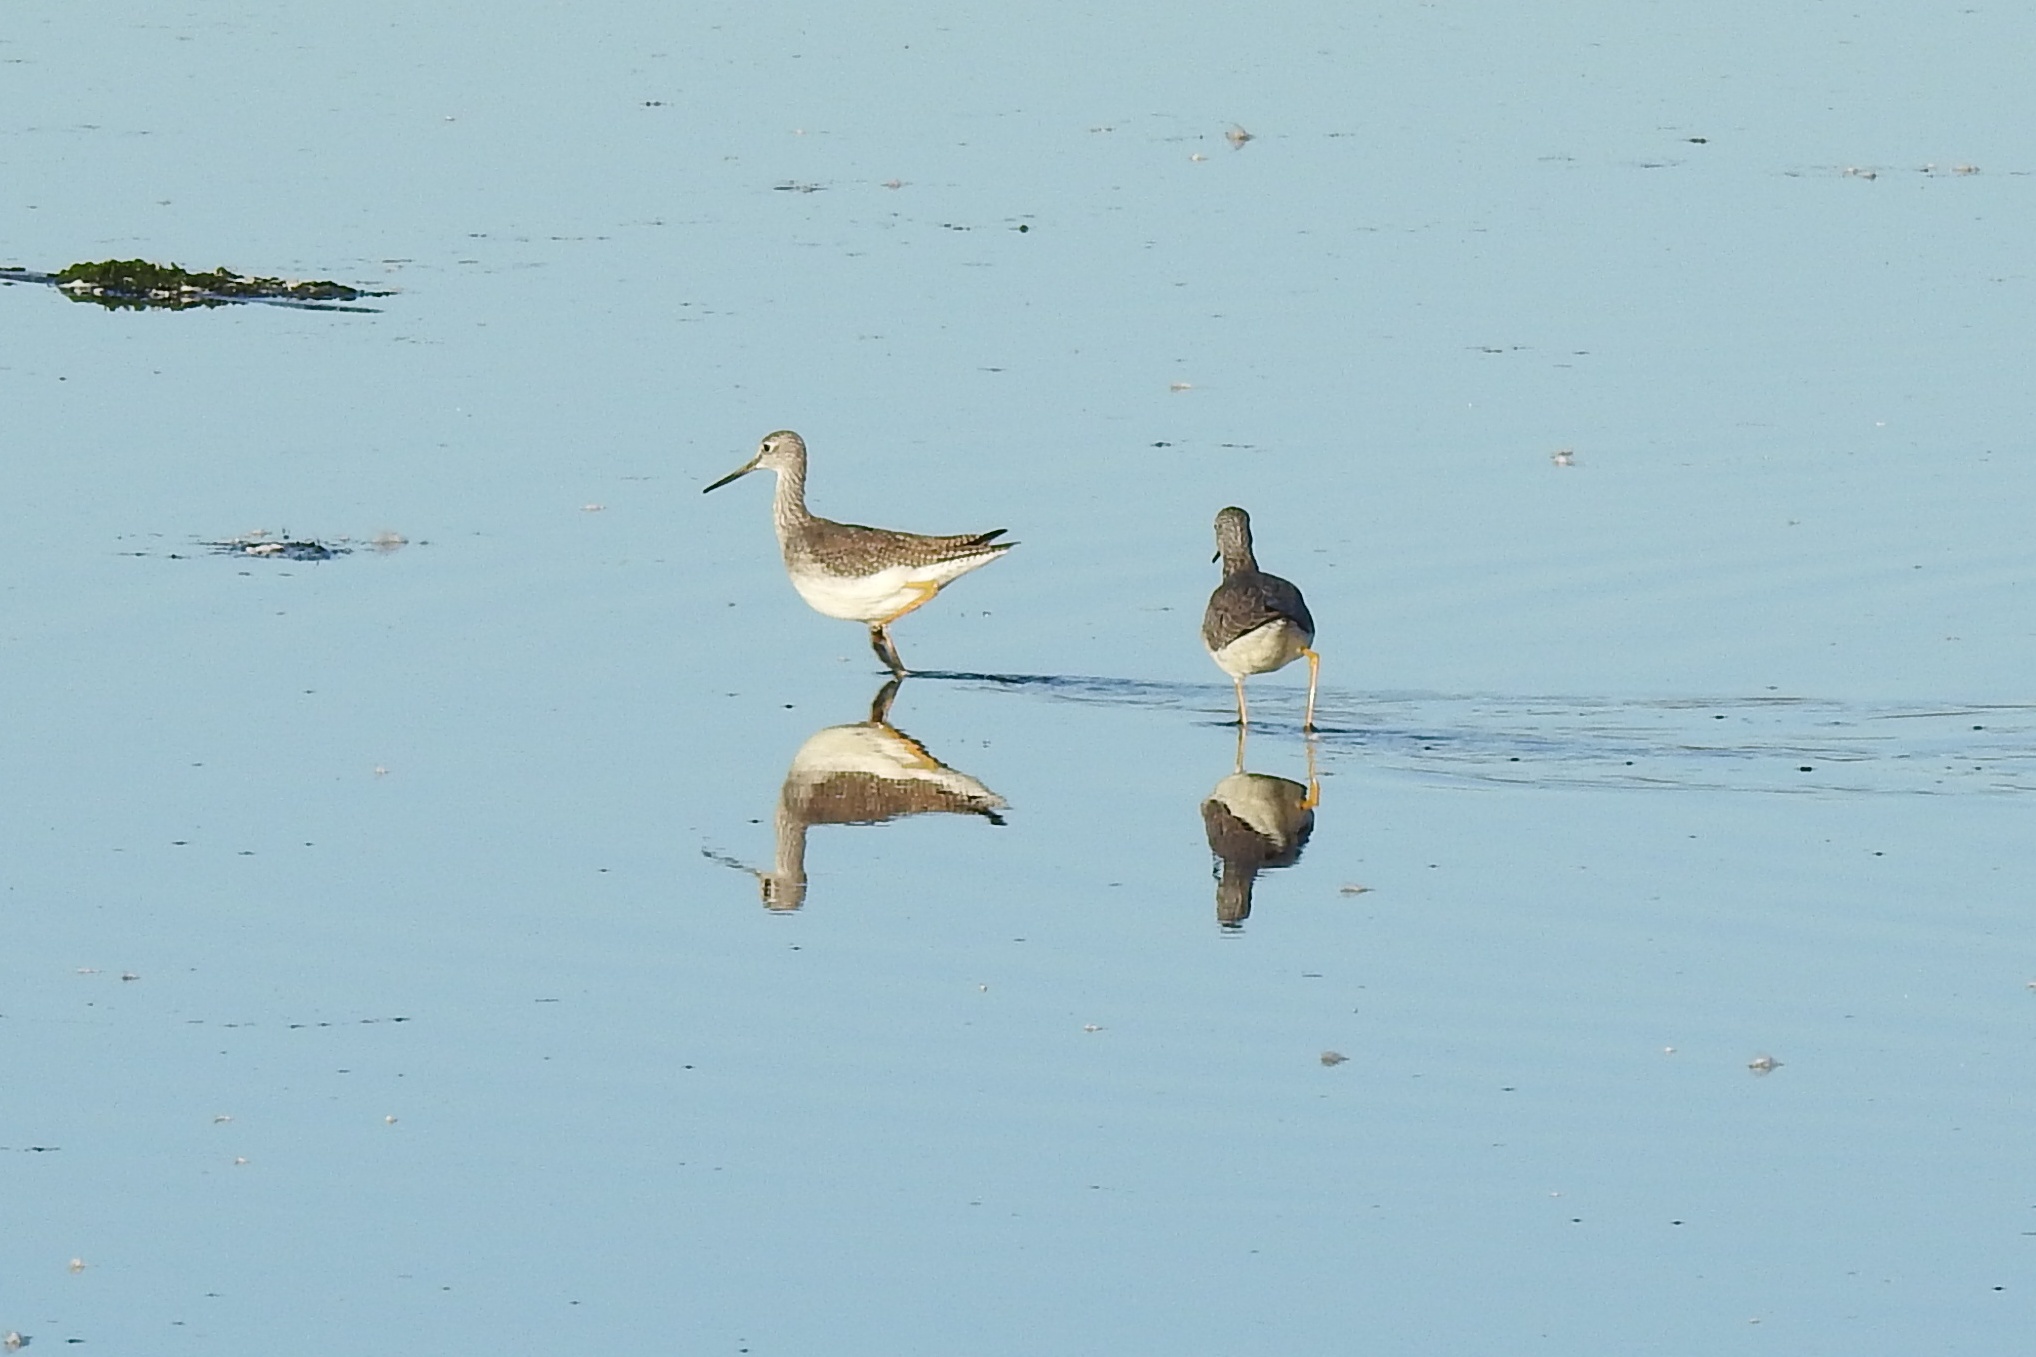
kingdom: Animalia
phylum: Chordata
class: Aves
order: Charadriiformes
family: Scolopacidae
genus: Tringa
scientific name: Tringa melanoleuca
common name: Greater yellowlegs
